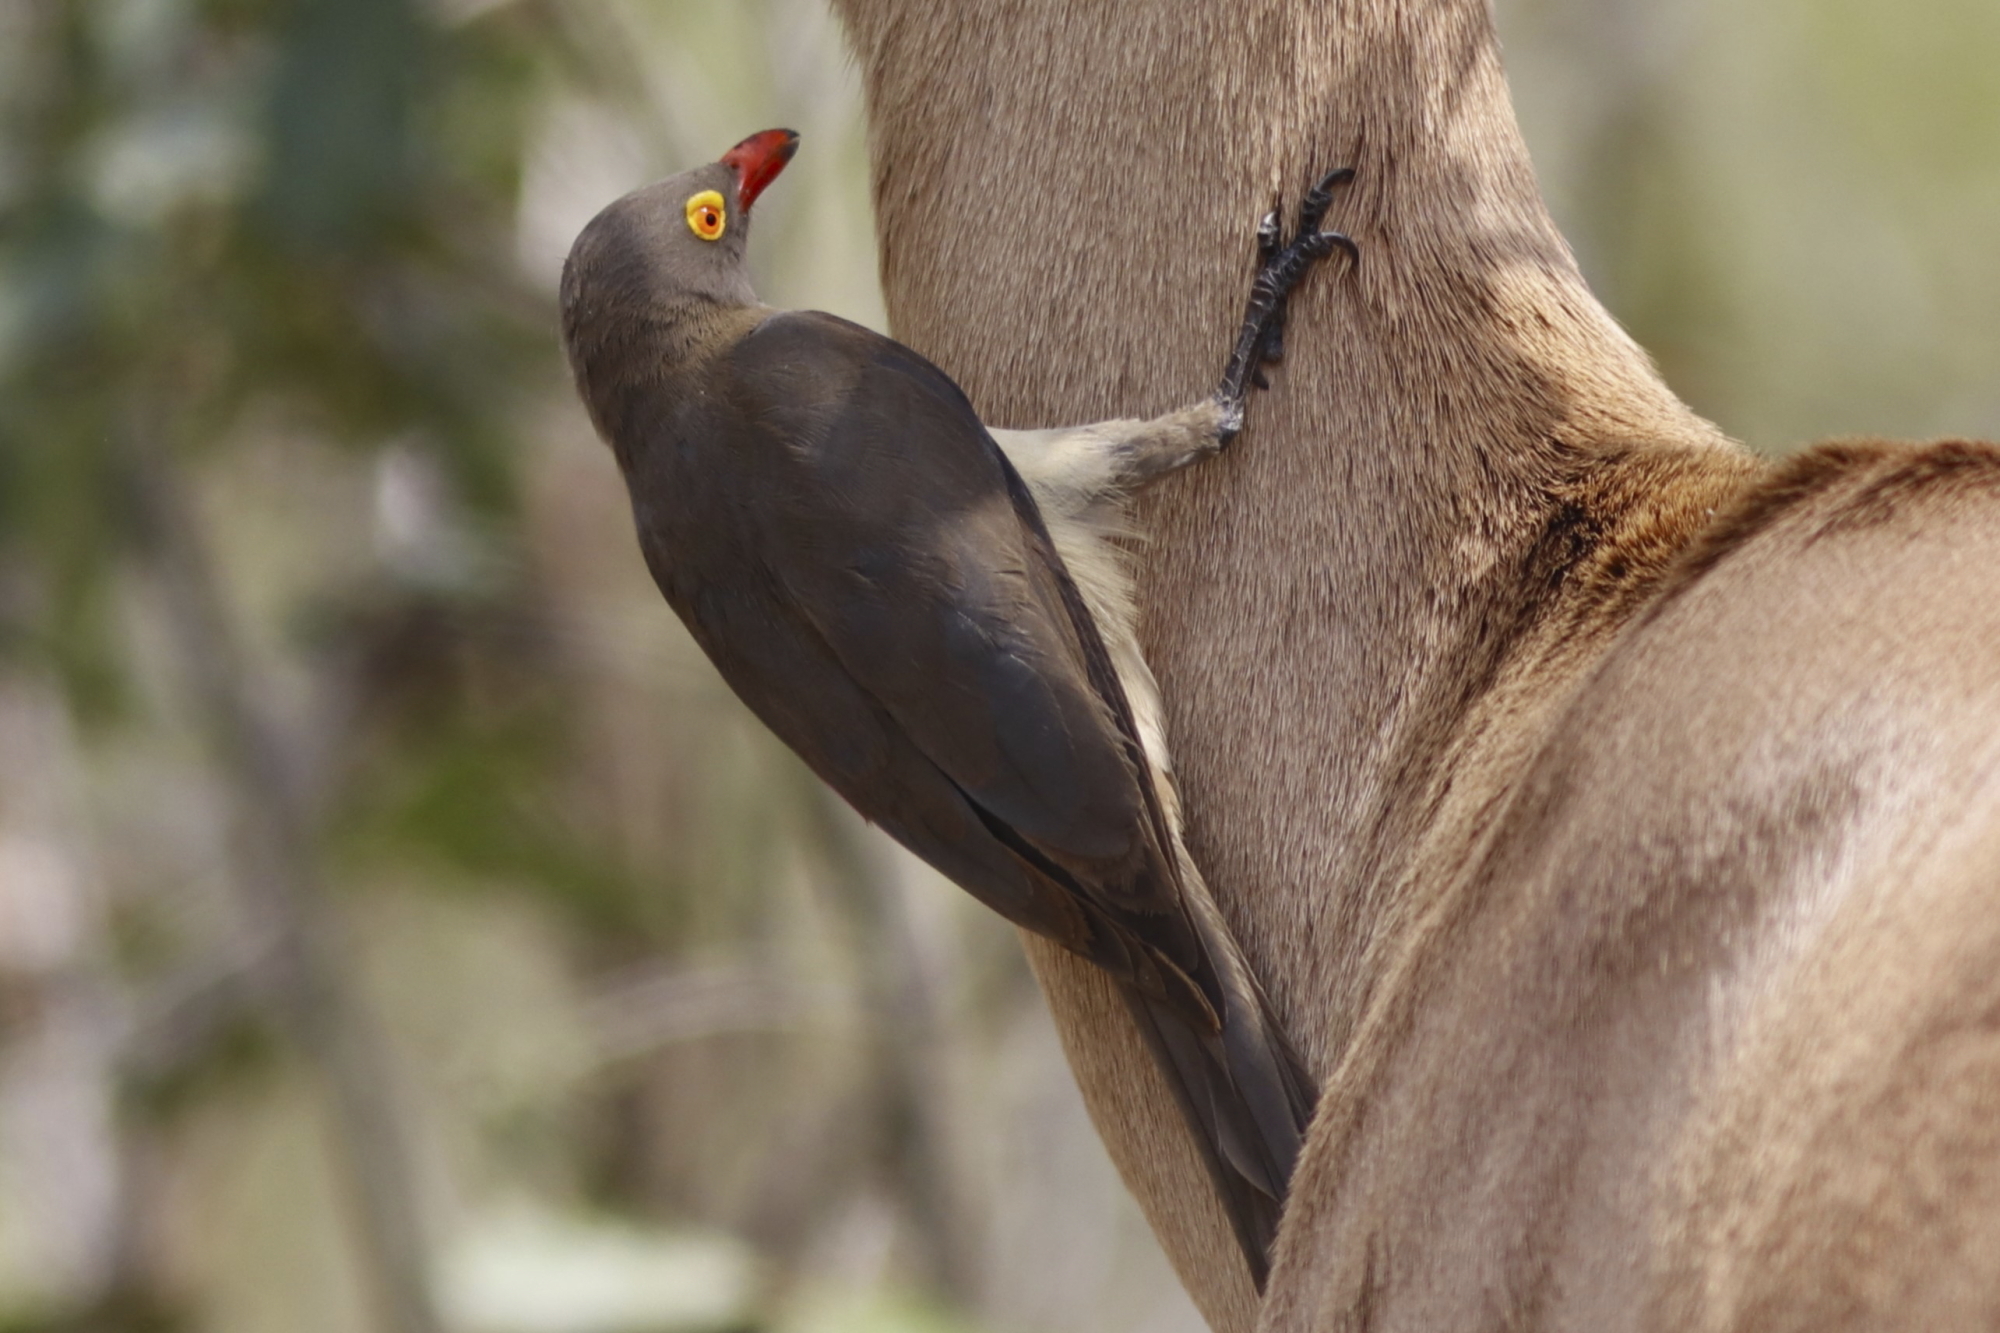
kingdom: Animalia
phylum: Chordata
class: Aves
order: Passeriformes
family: Buphagidae
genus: Buphagus
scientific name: Buphagus erythrorhynchus
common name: Red-billed oxpecker
